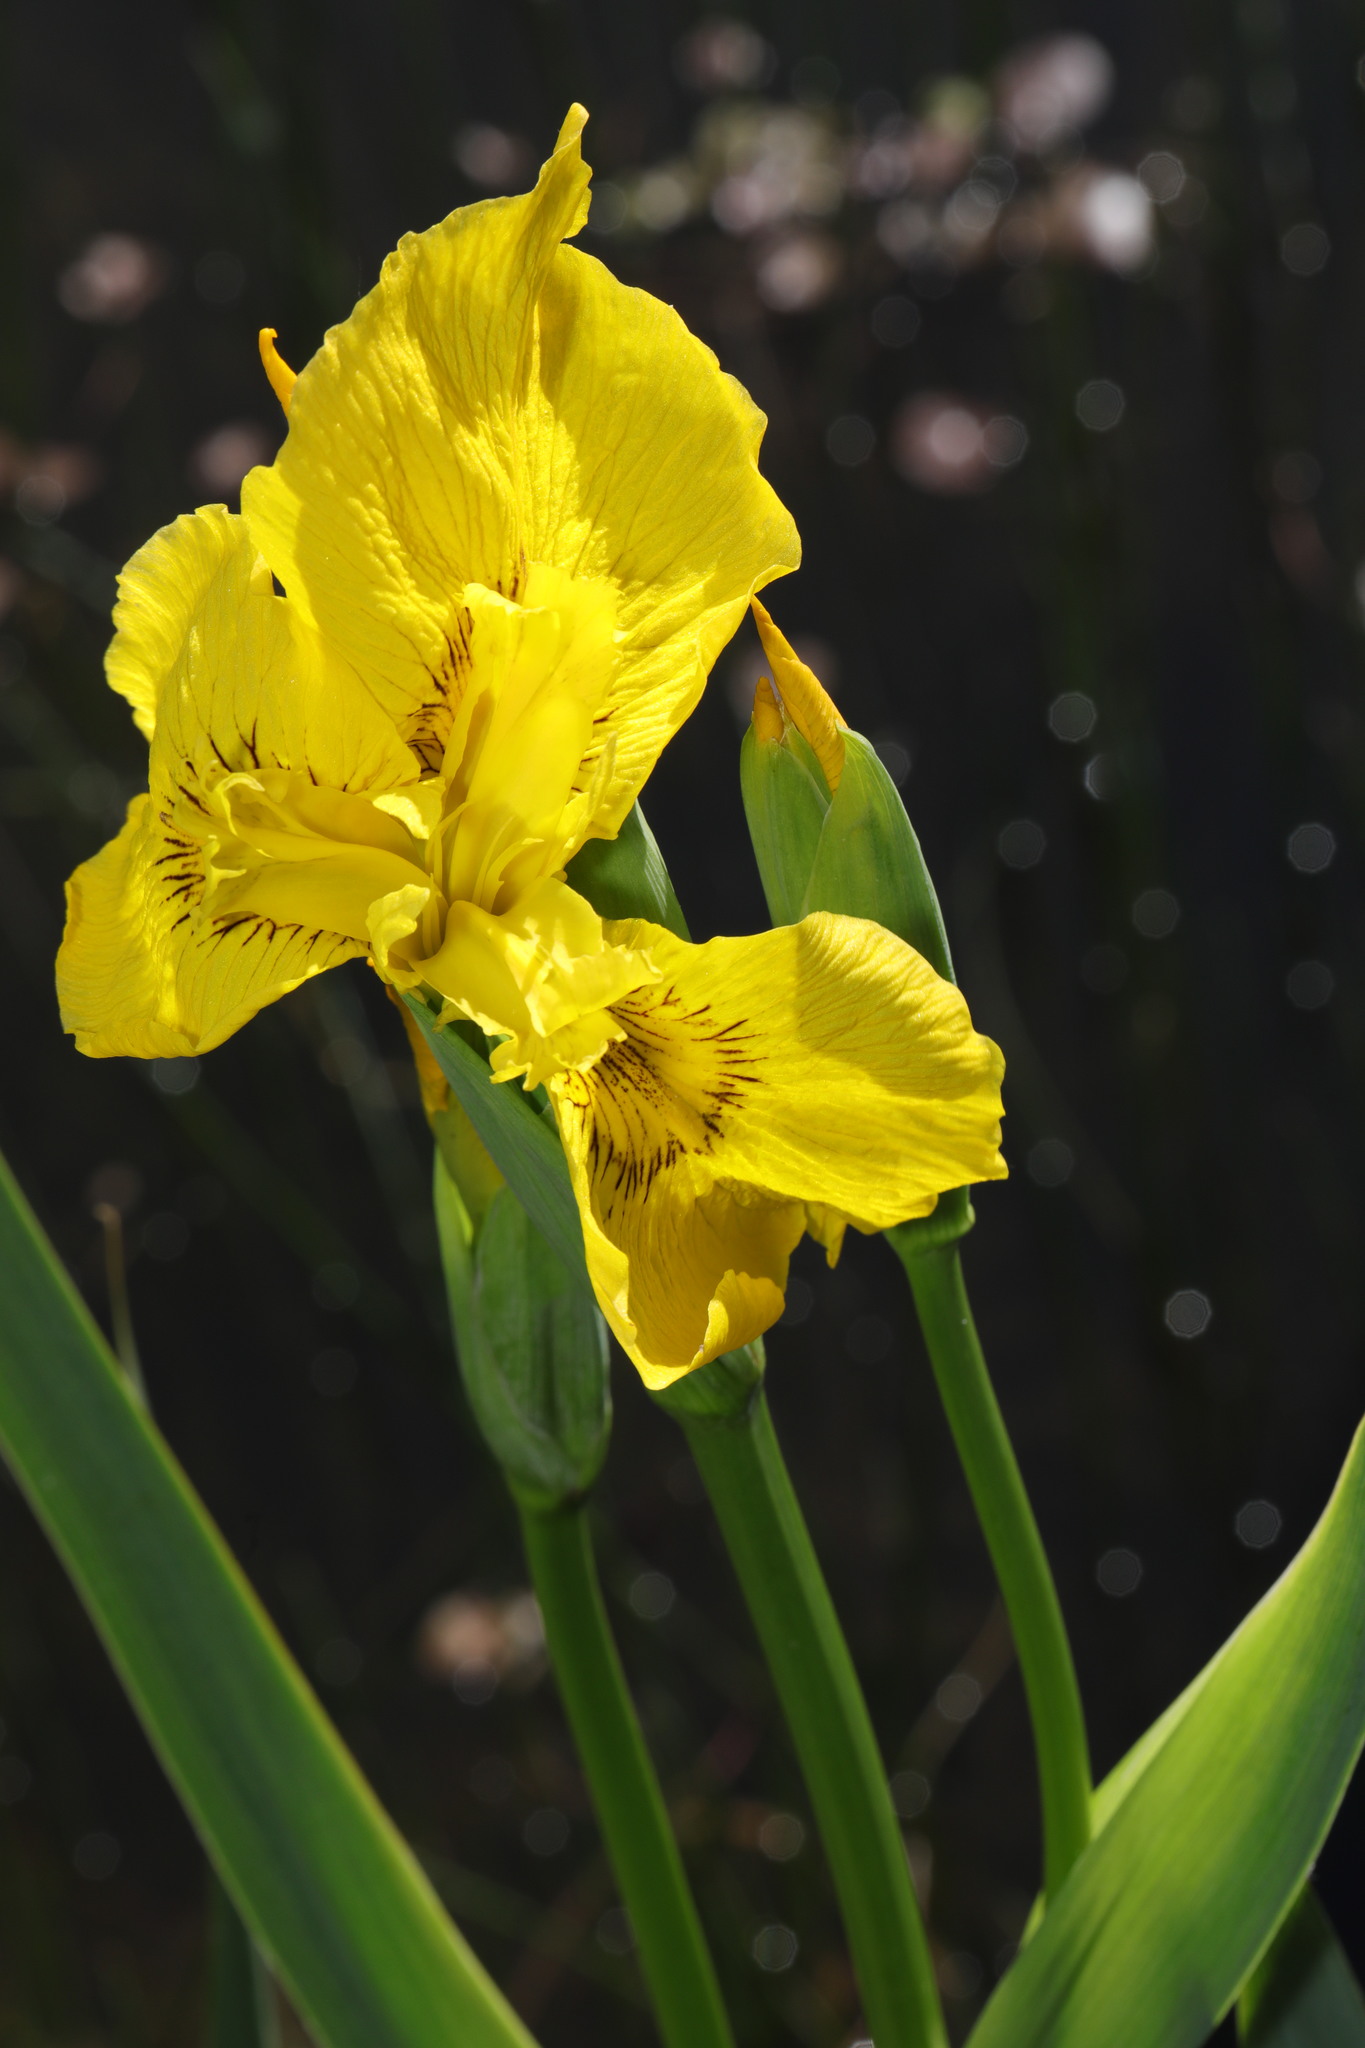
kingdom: Plantae
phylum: Tracheophyta
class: Liliopsida
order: Asparagales
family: Iridaceae
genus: Iris
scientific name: Iris pseudacorus
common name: Yellow flag
